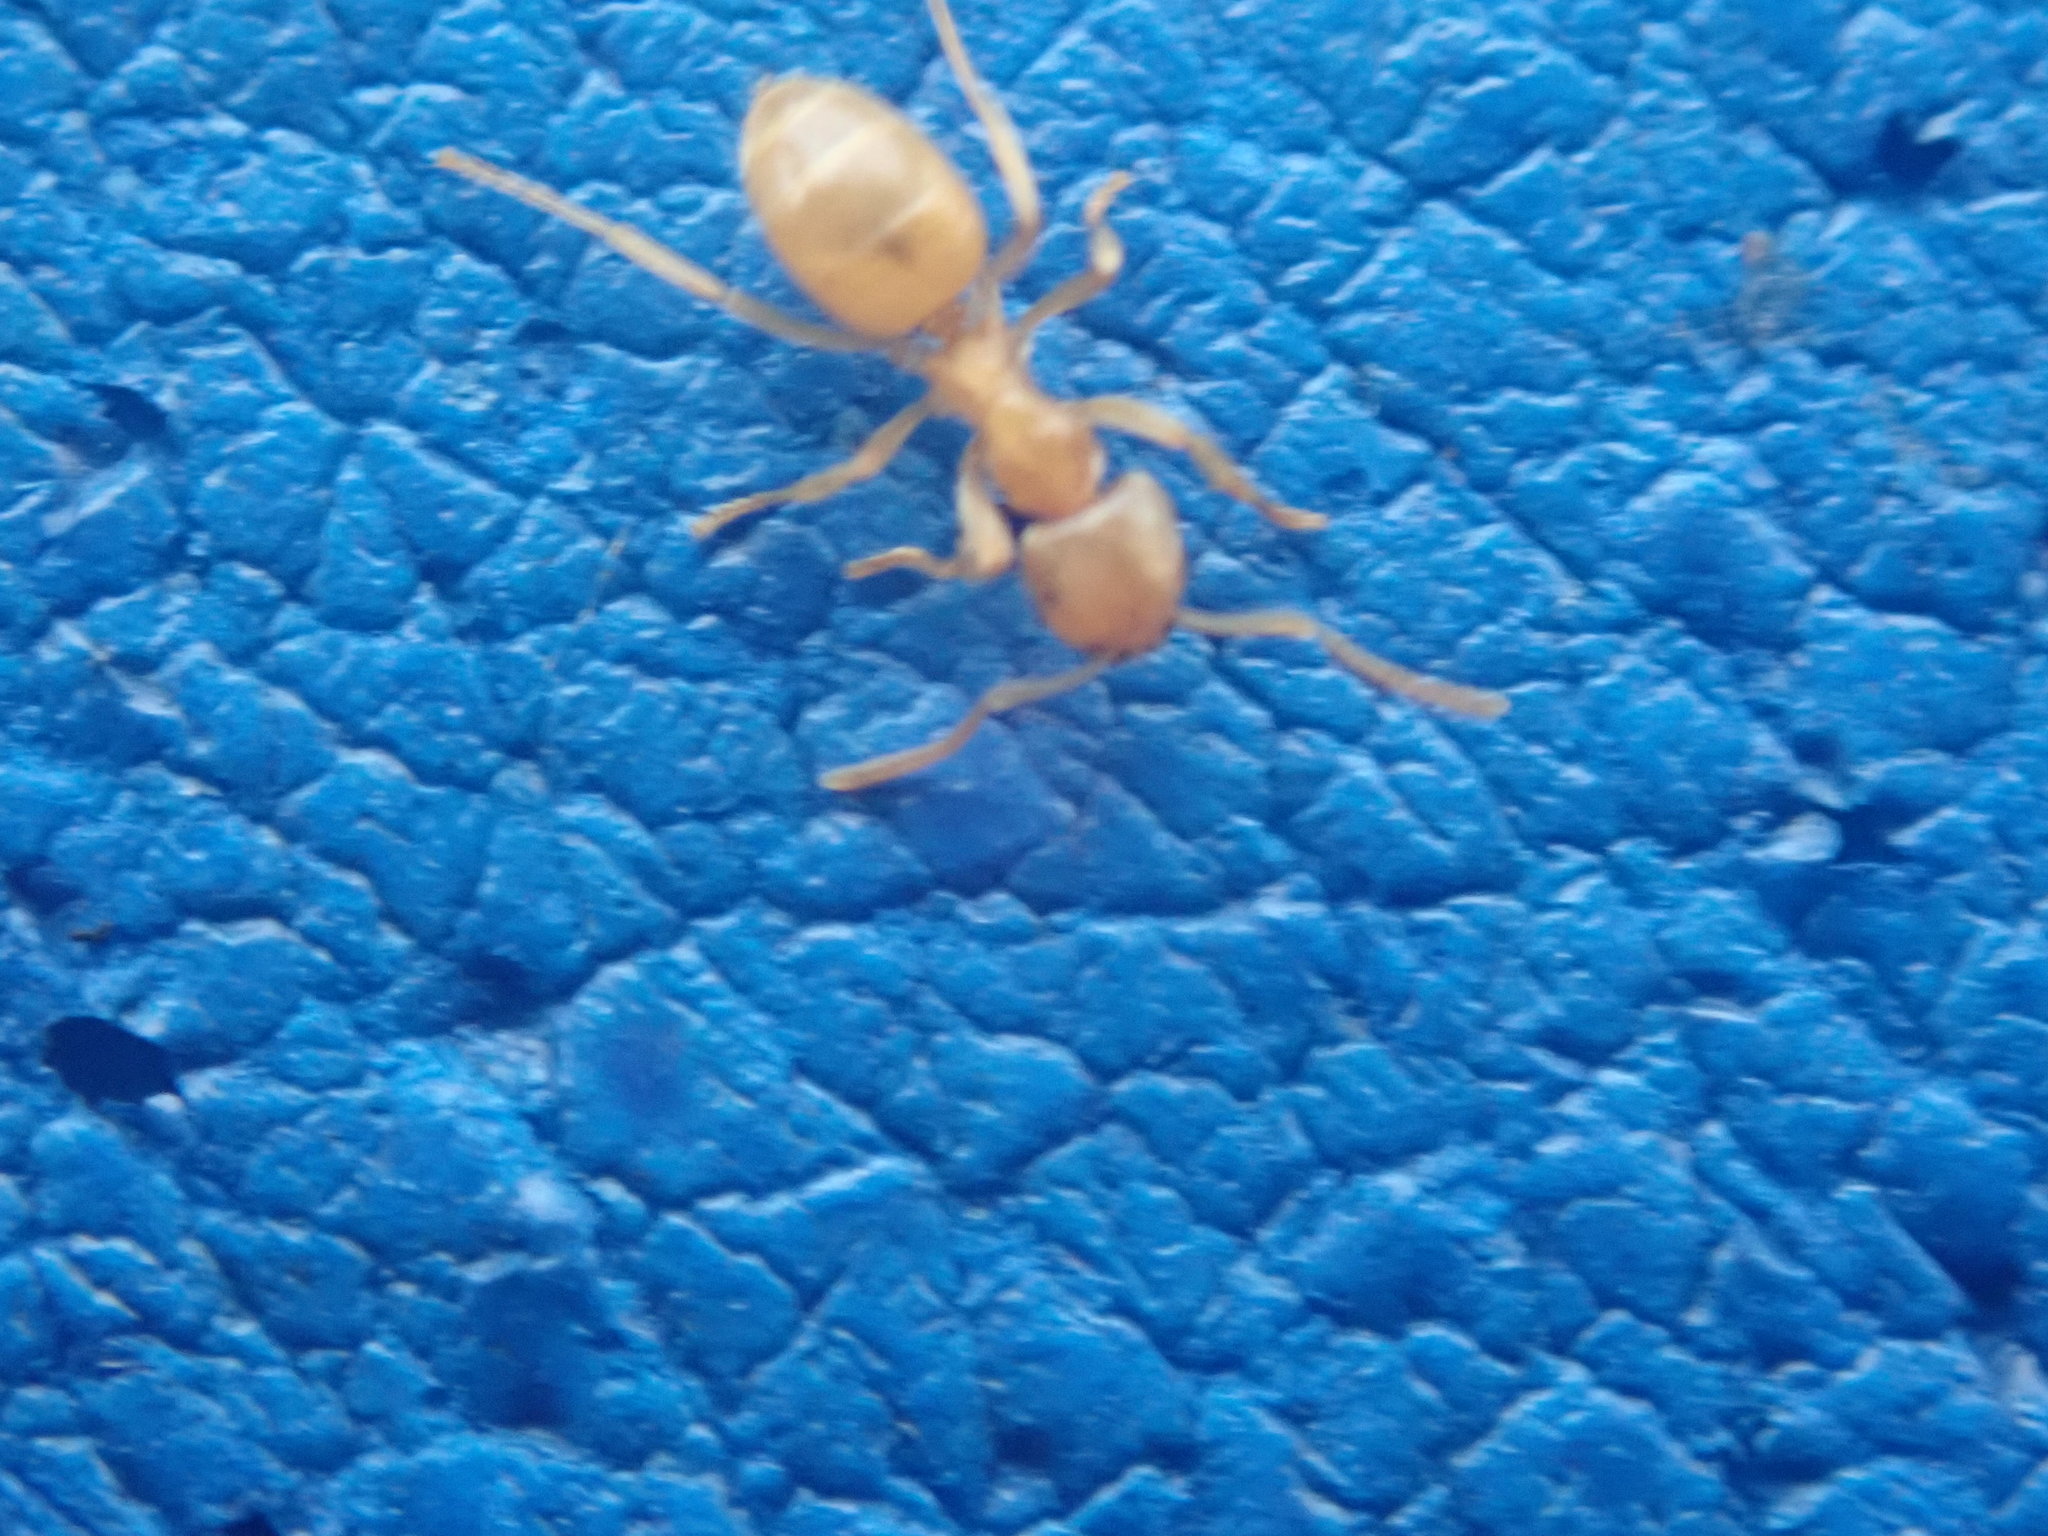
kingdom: Animalia
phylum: Arthropoda
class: Insecta
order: Hymenoptera
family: Formicidae
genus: Lasius
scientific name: Lasius
